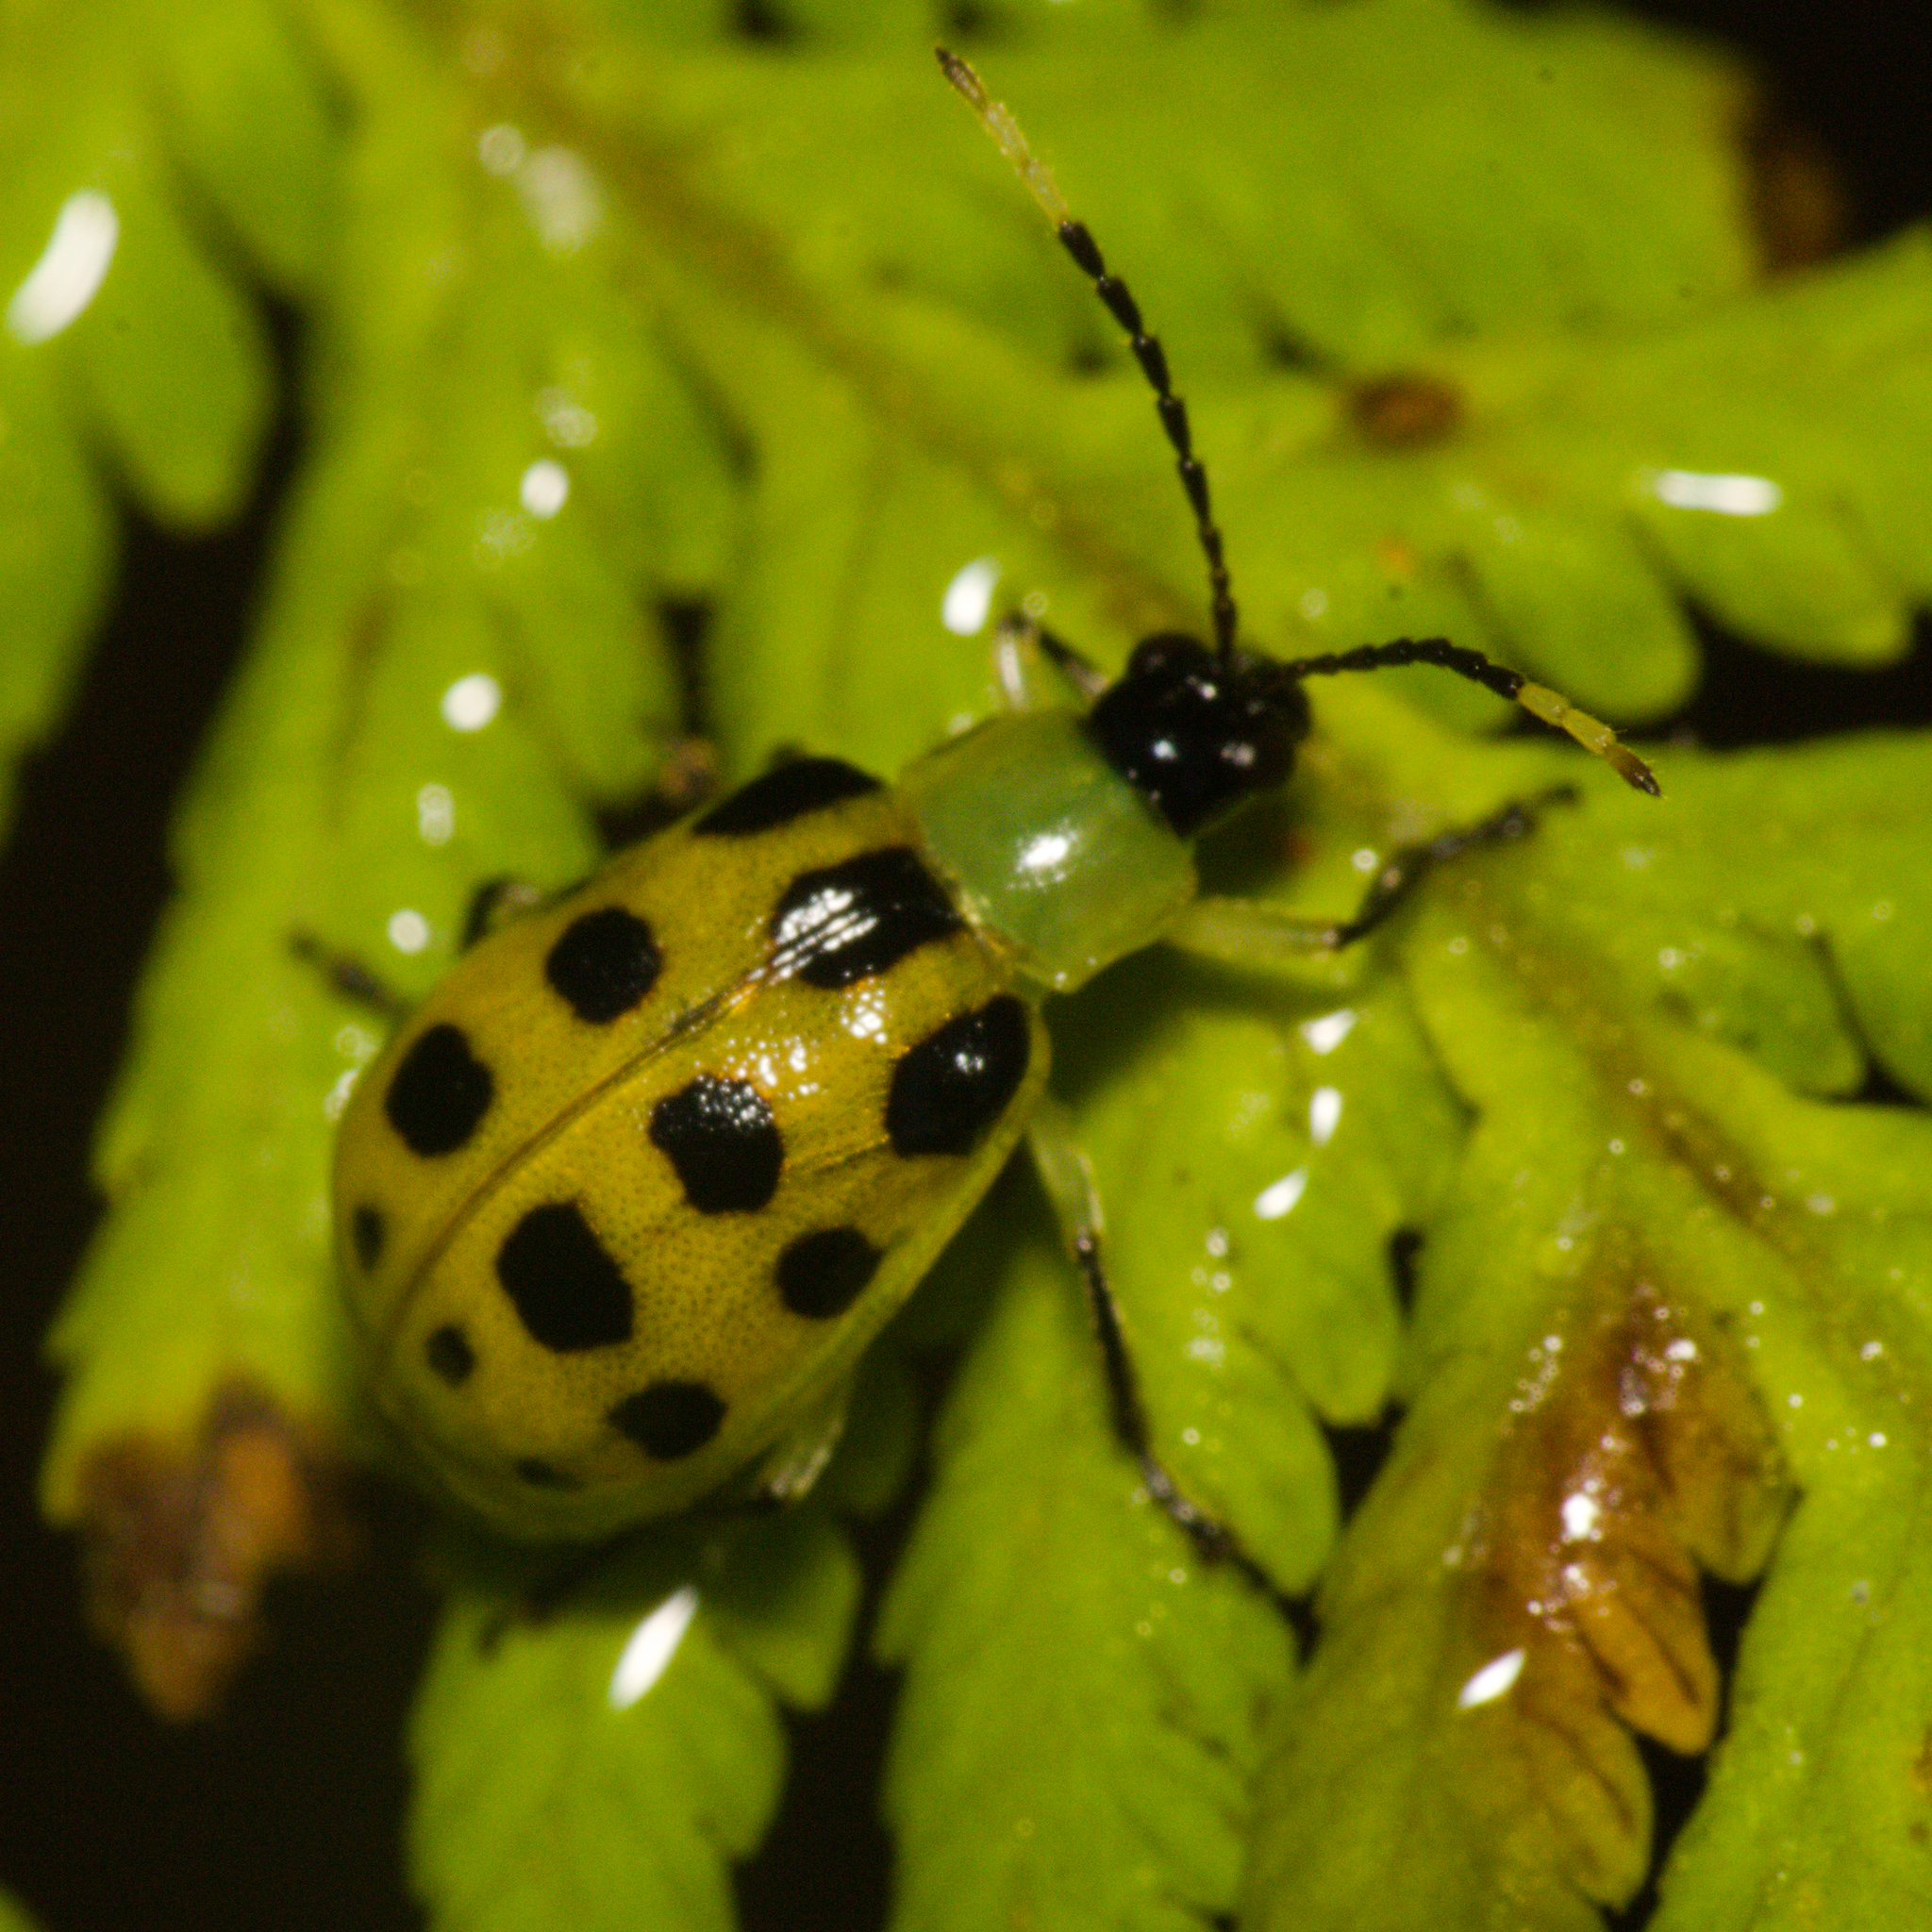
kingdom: Animalia
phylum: Arthropoda
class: Insecta
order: Coleoptera
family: Chrysomelidae
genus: Diabrotica
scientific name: Diabrotica limitata
